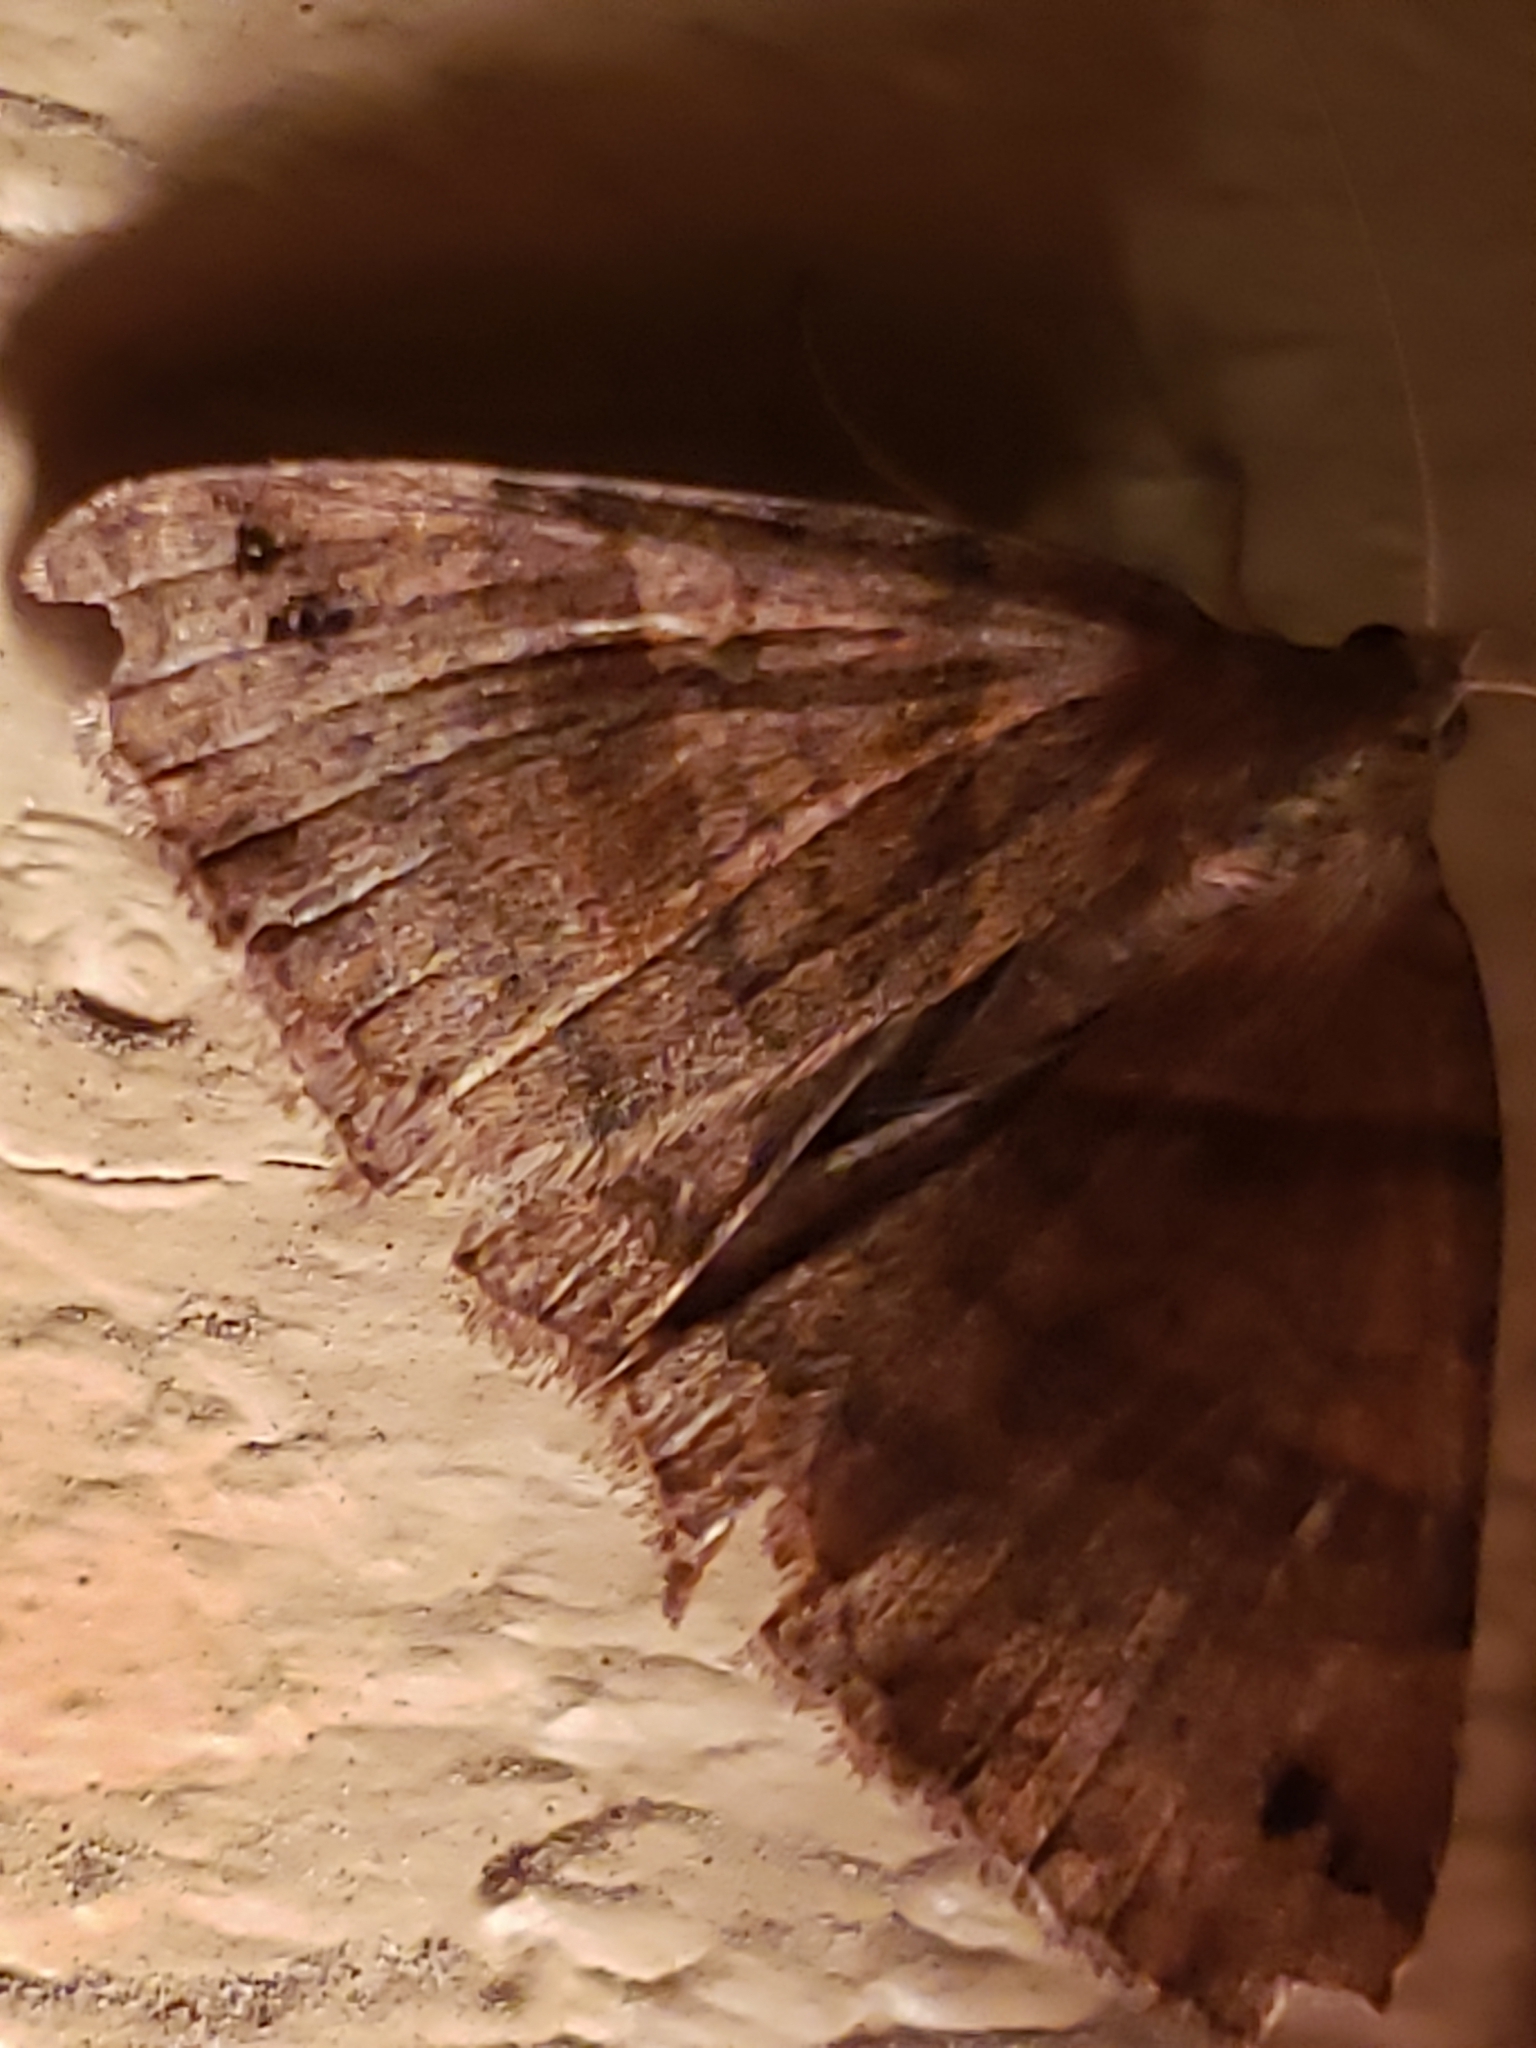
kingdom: Animalia
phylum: Arthropoda
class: Insecta
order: Lepidoptera
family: Erebidae
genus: Caenurgina
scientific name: Caenurgina crassiuscula
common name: Double-barred
